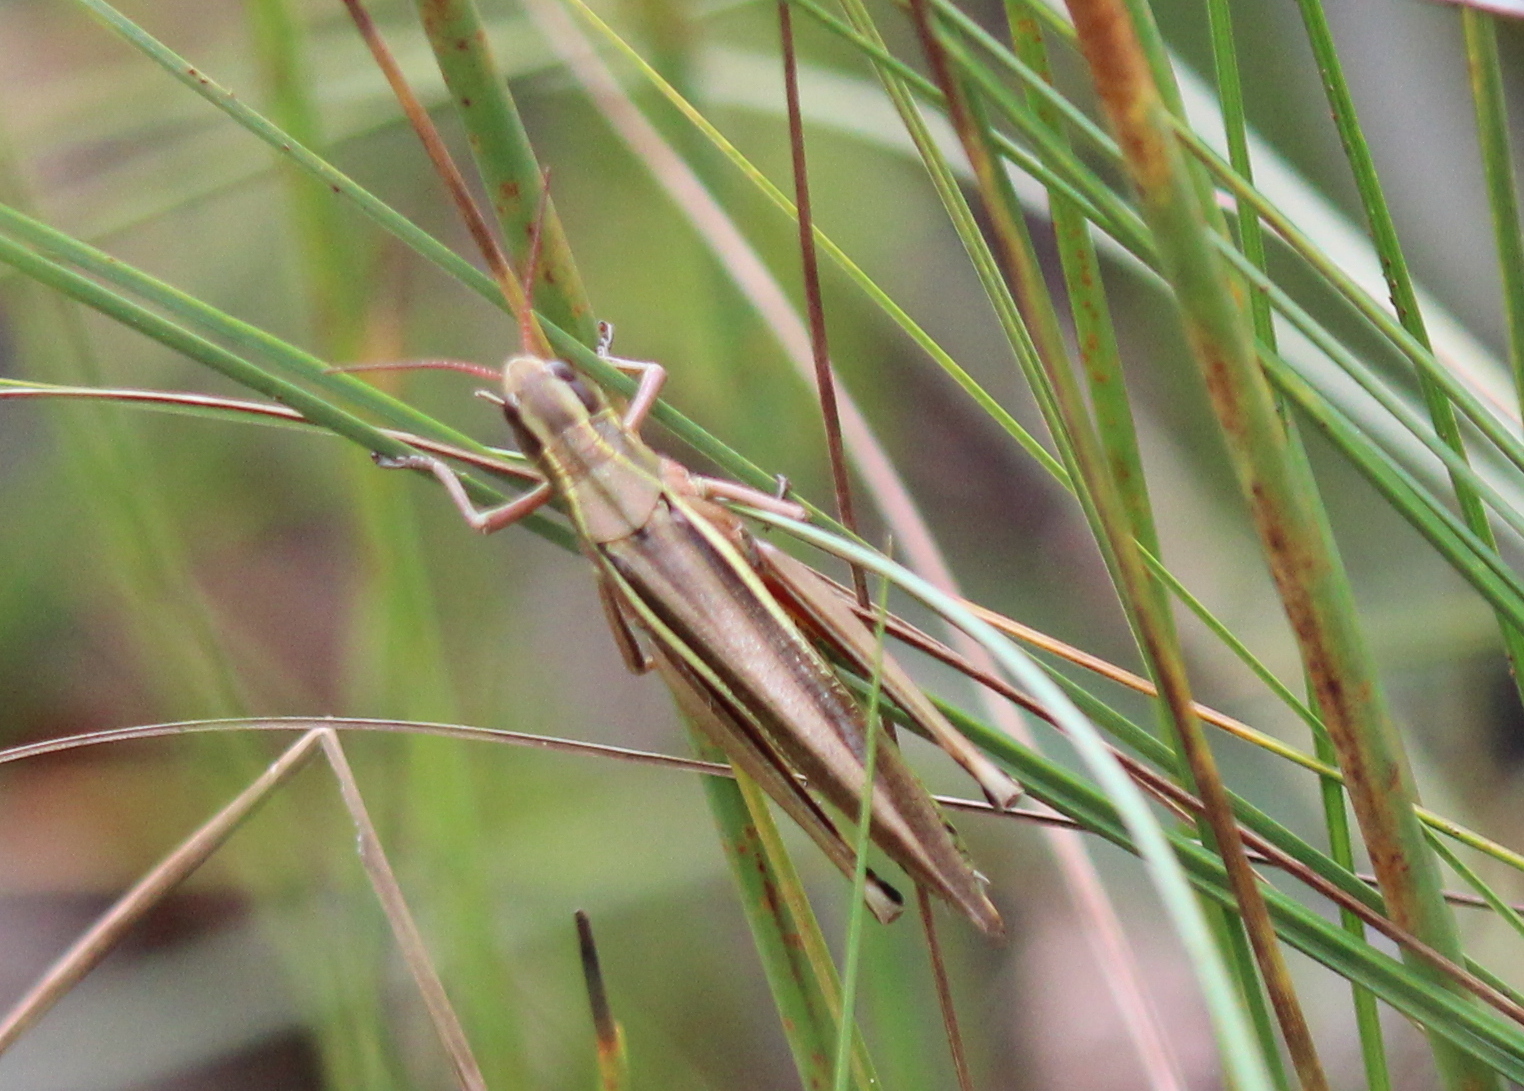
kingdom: Animalia
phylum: Arthropoda
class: Insecta
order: Orthoptera
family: Acrididae
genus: Stethophyma
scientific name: Stethophyma lineatum
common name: Striped sedge locust
